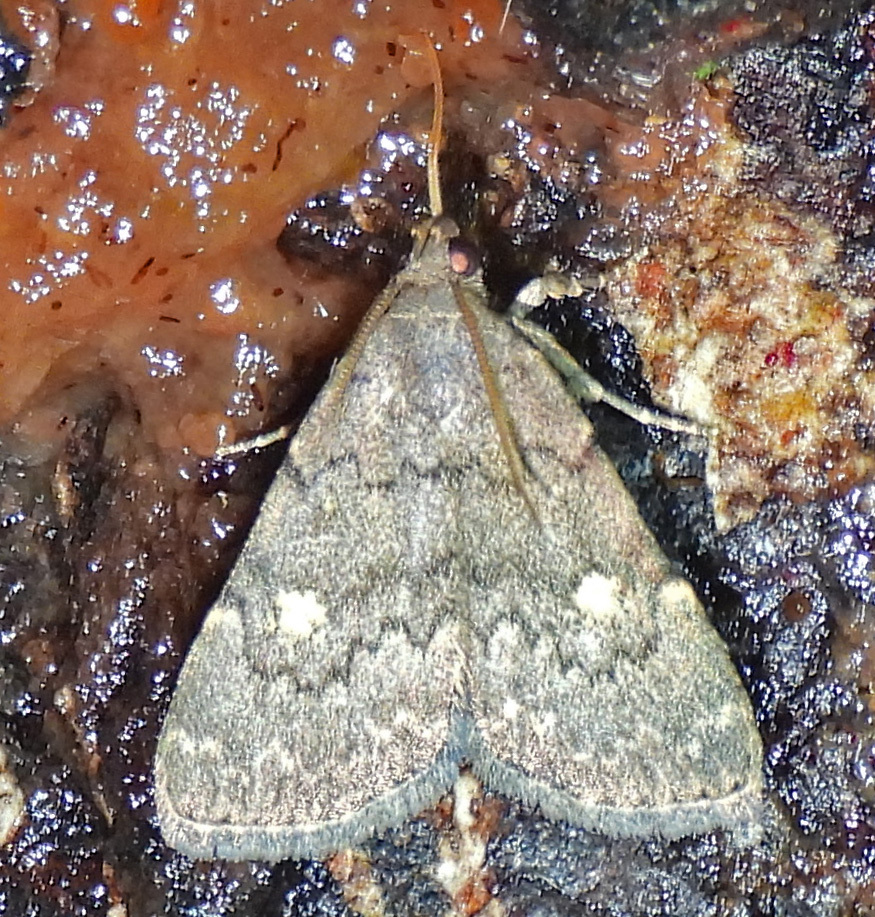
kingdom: Animalia
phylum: Arthropoda
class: Insecta
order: Lepidoptera
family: Erebidae
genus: Idia
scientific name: Idia aemula
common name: Common idia moth
